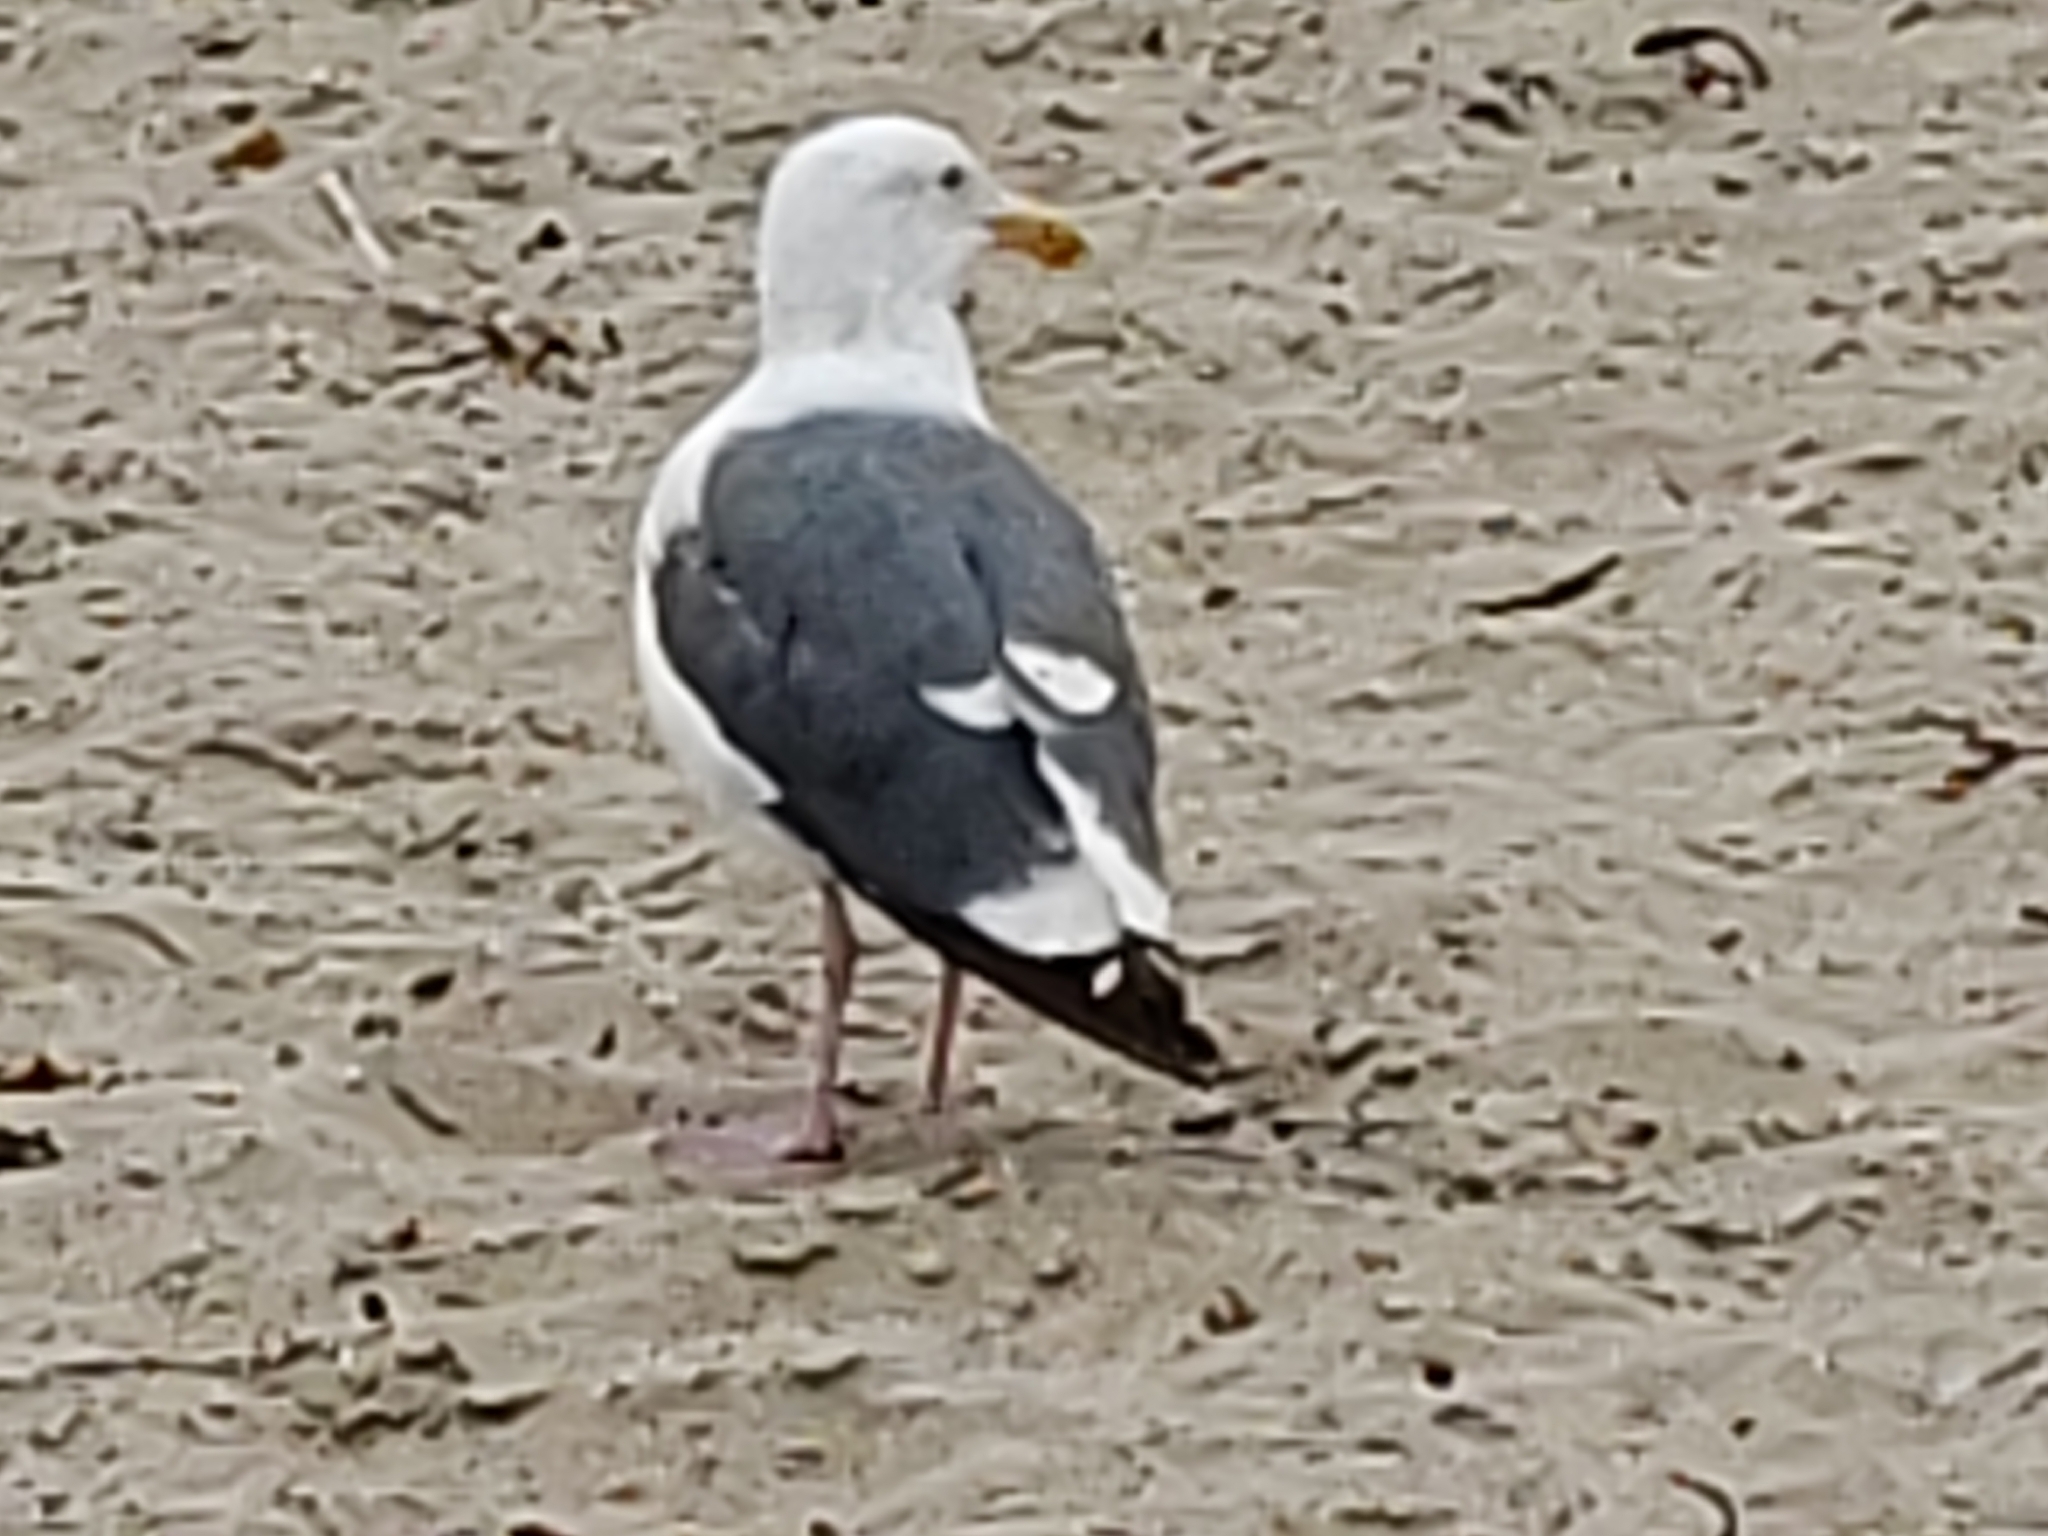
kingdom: Animalia
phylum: Chordata
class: Aves
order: Charadriiformes
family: Laridae
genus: Larus
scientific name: Larus occidentalis
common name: Western gull
